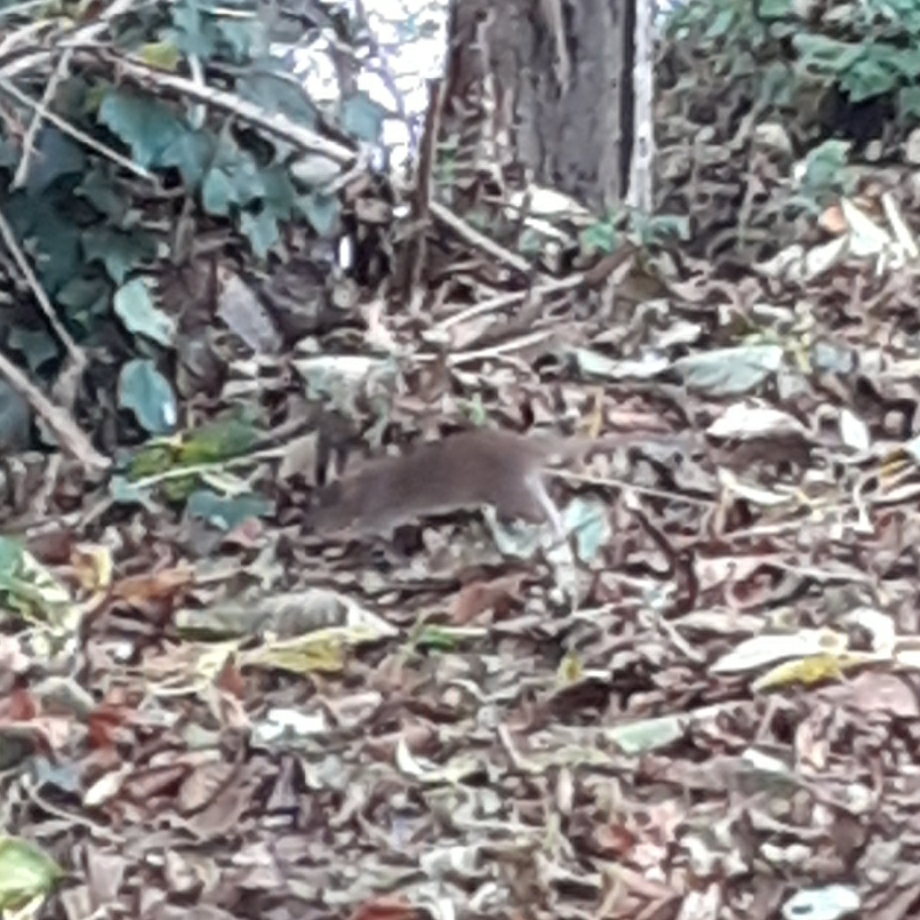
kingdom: Animalia
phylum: Chordata
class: Mammalia
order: Rodentia
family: Muridae
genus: Rattus
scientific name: Rattus norvegicus
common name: Brown rat
